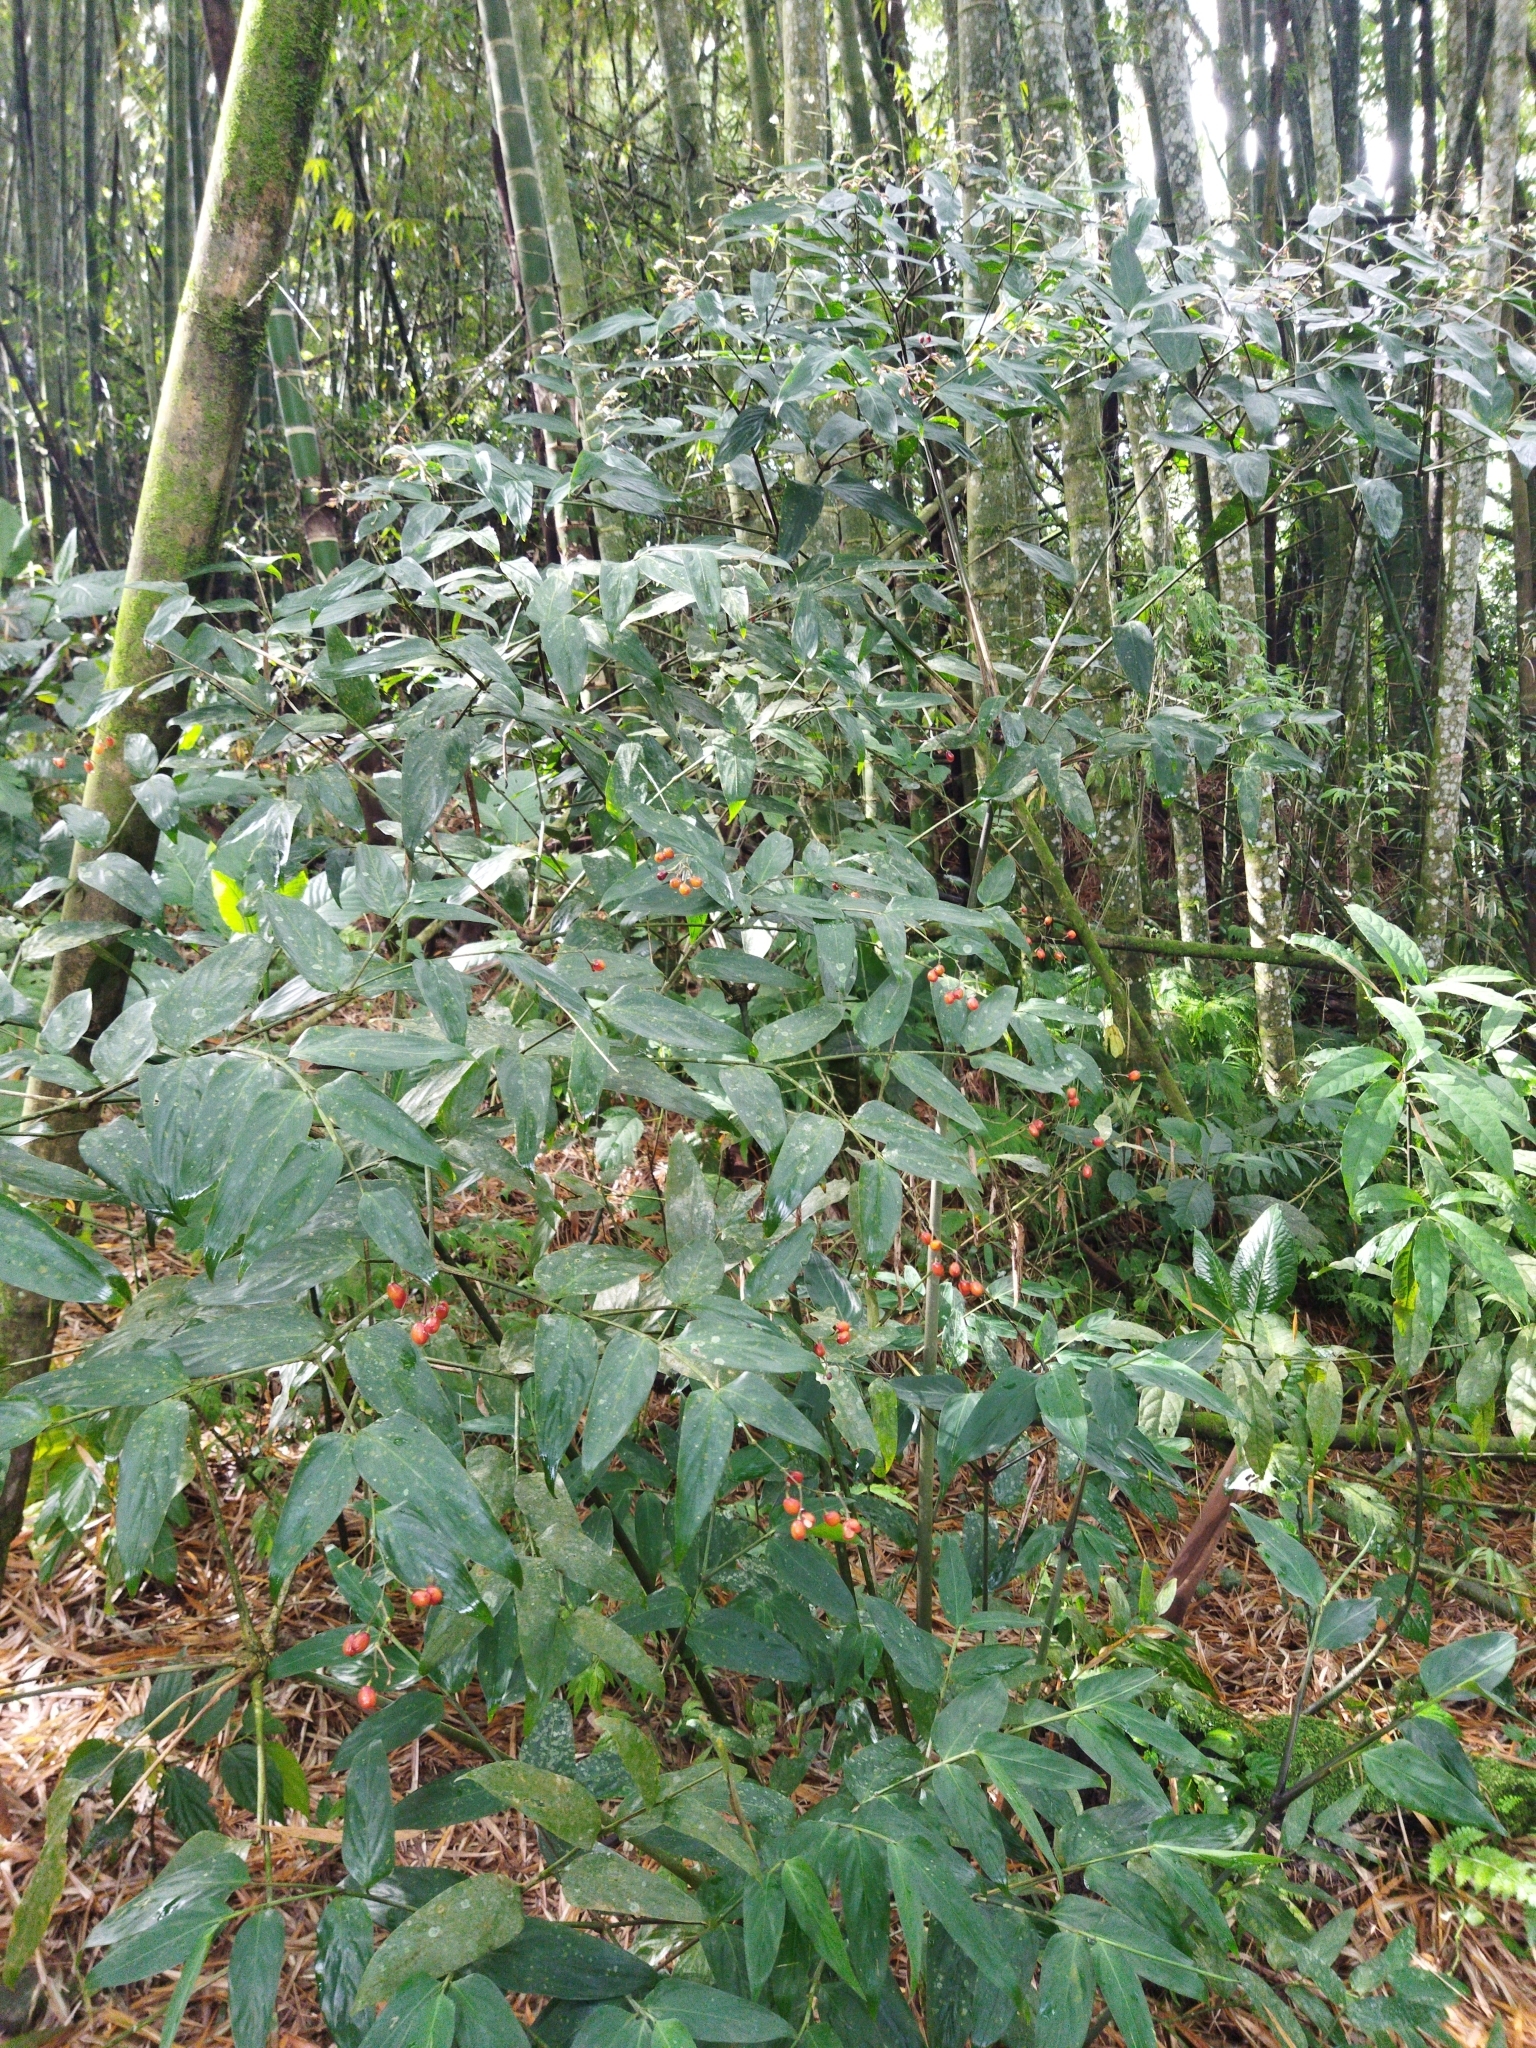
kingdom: Plantae
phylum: Tracheophyta
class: Liliopsida
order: Zingiberales
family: Marantaceae
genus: Stromanthe
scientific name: Stromanthe tonckat
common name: Stromanthe
